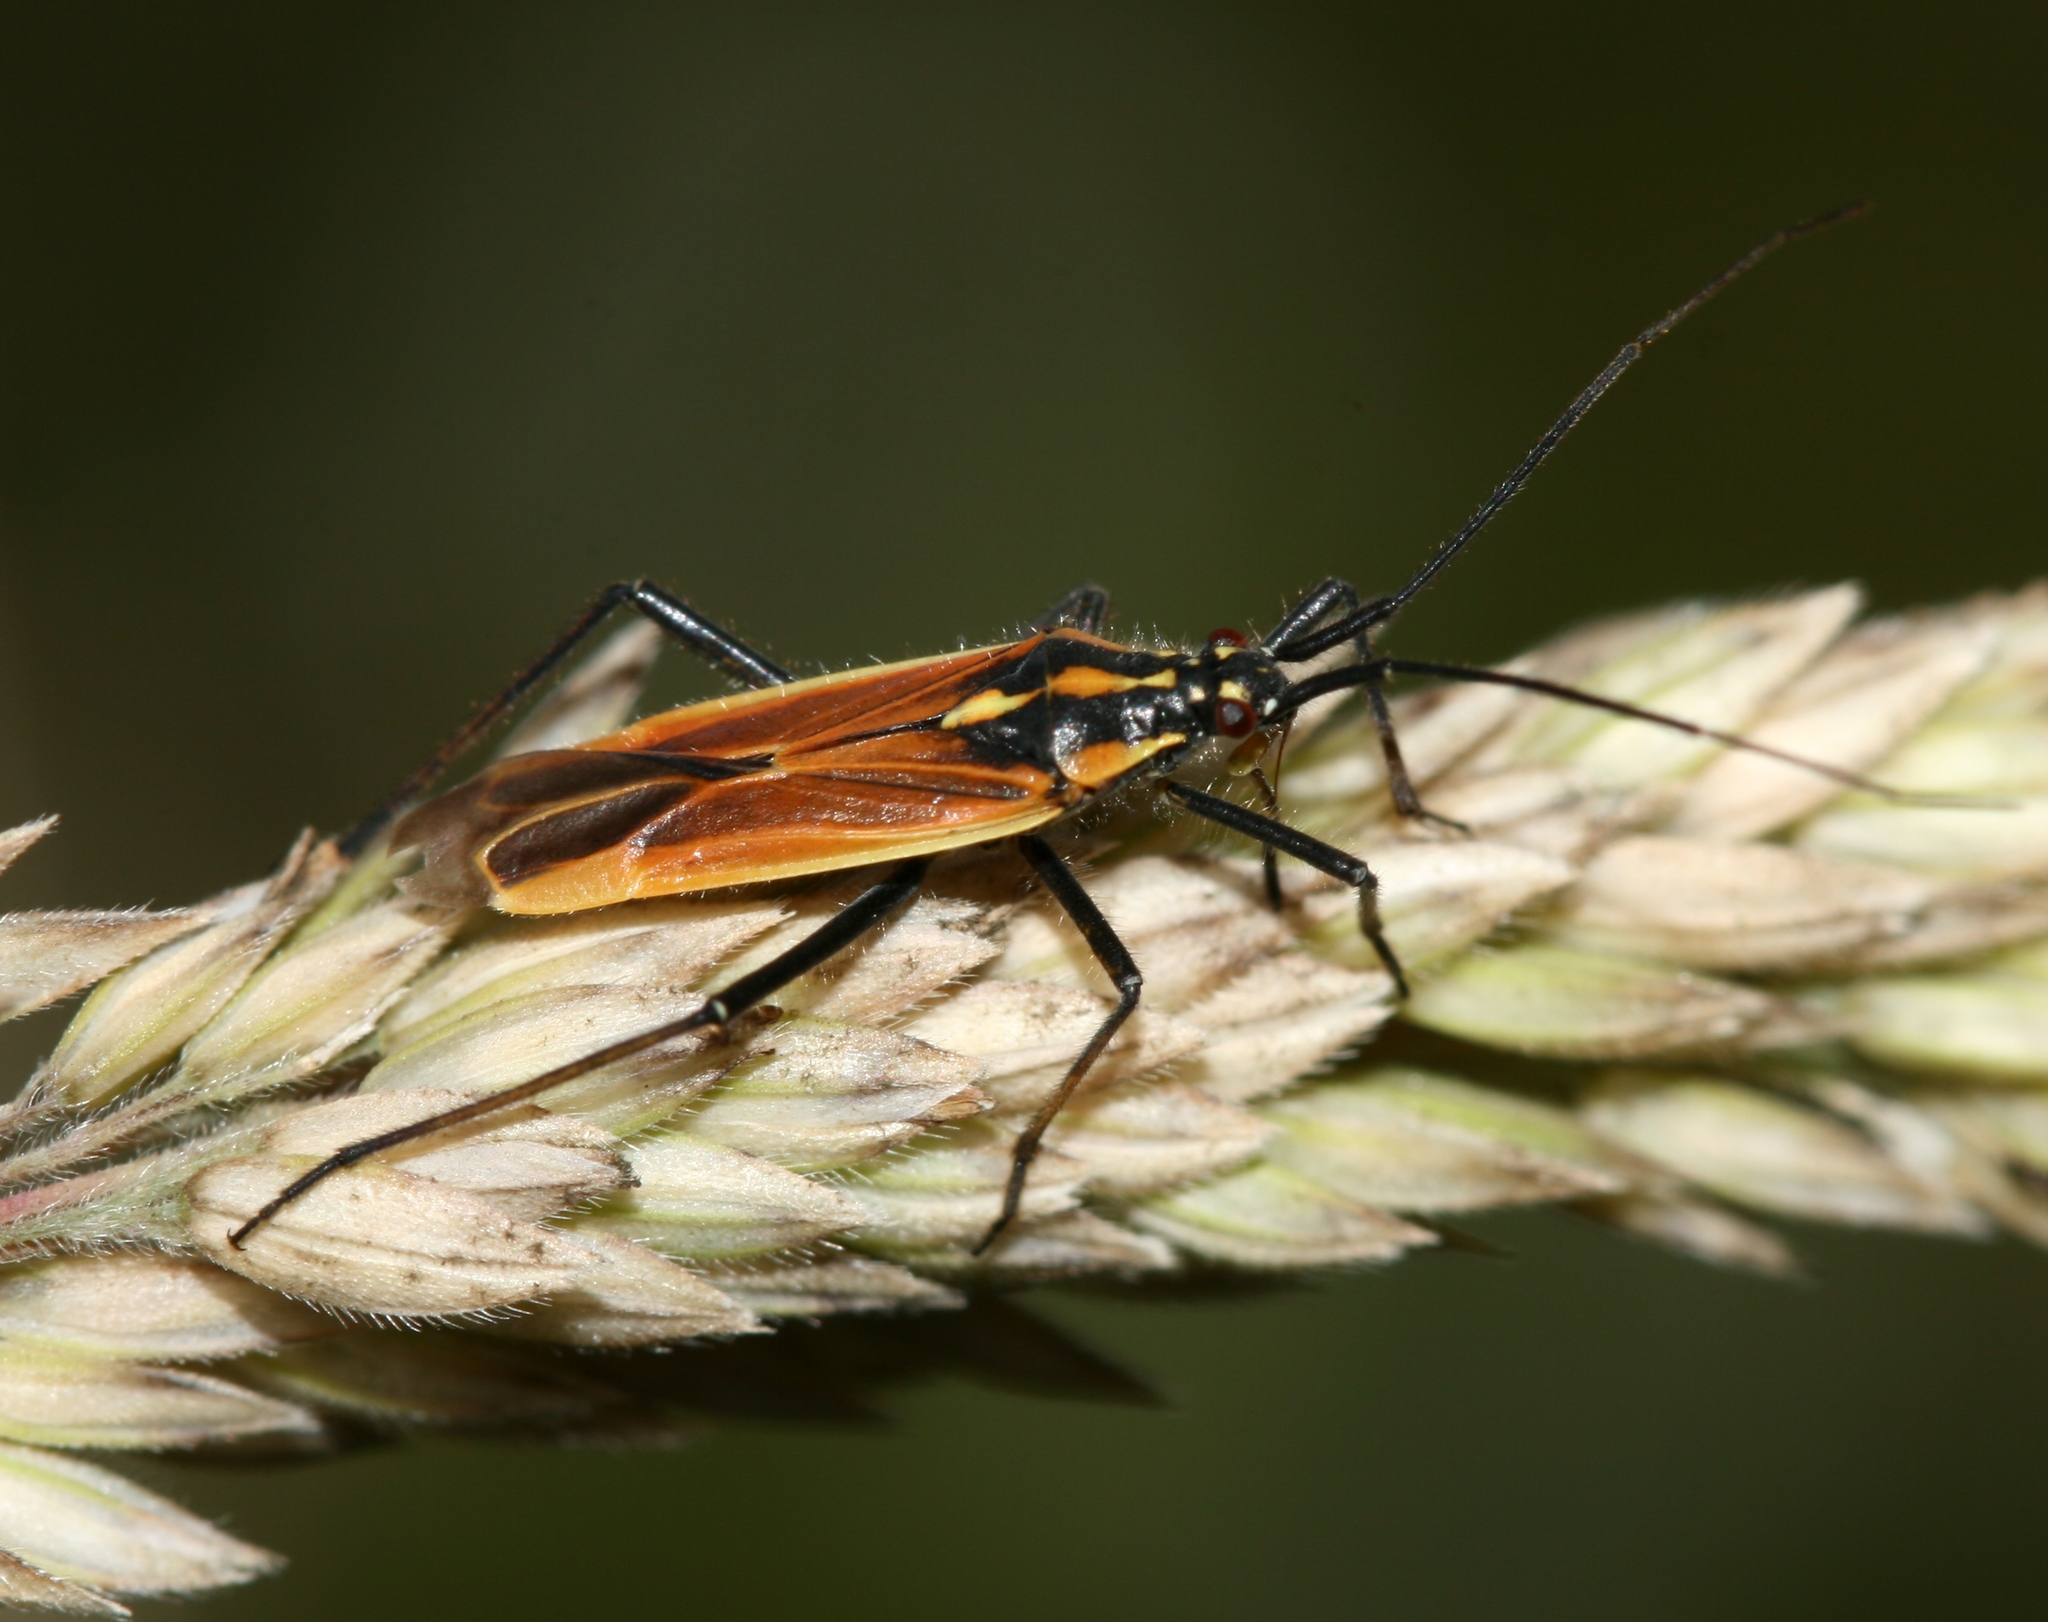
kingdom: Animalia
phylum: Arthropoda
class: Insecta
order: Hemiptera
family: Miridae
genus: Leptopterna
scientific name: Leptopterna dolabrata
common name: Meadow plant bug
